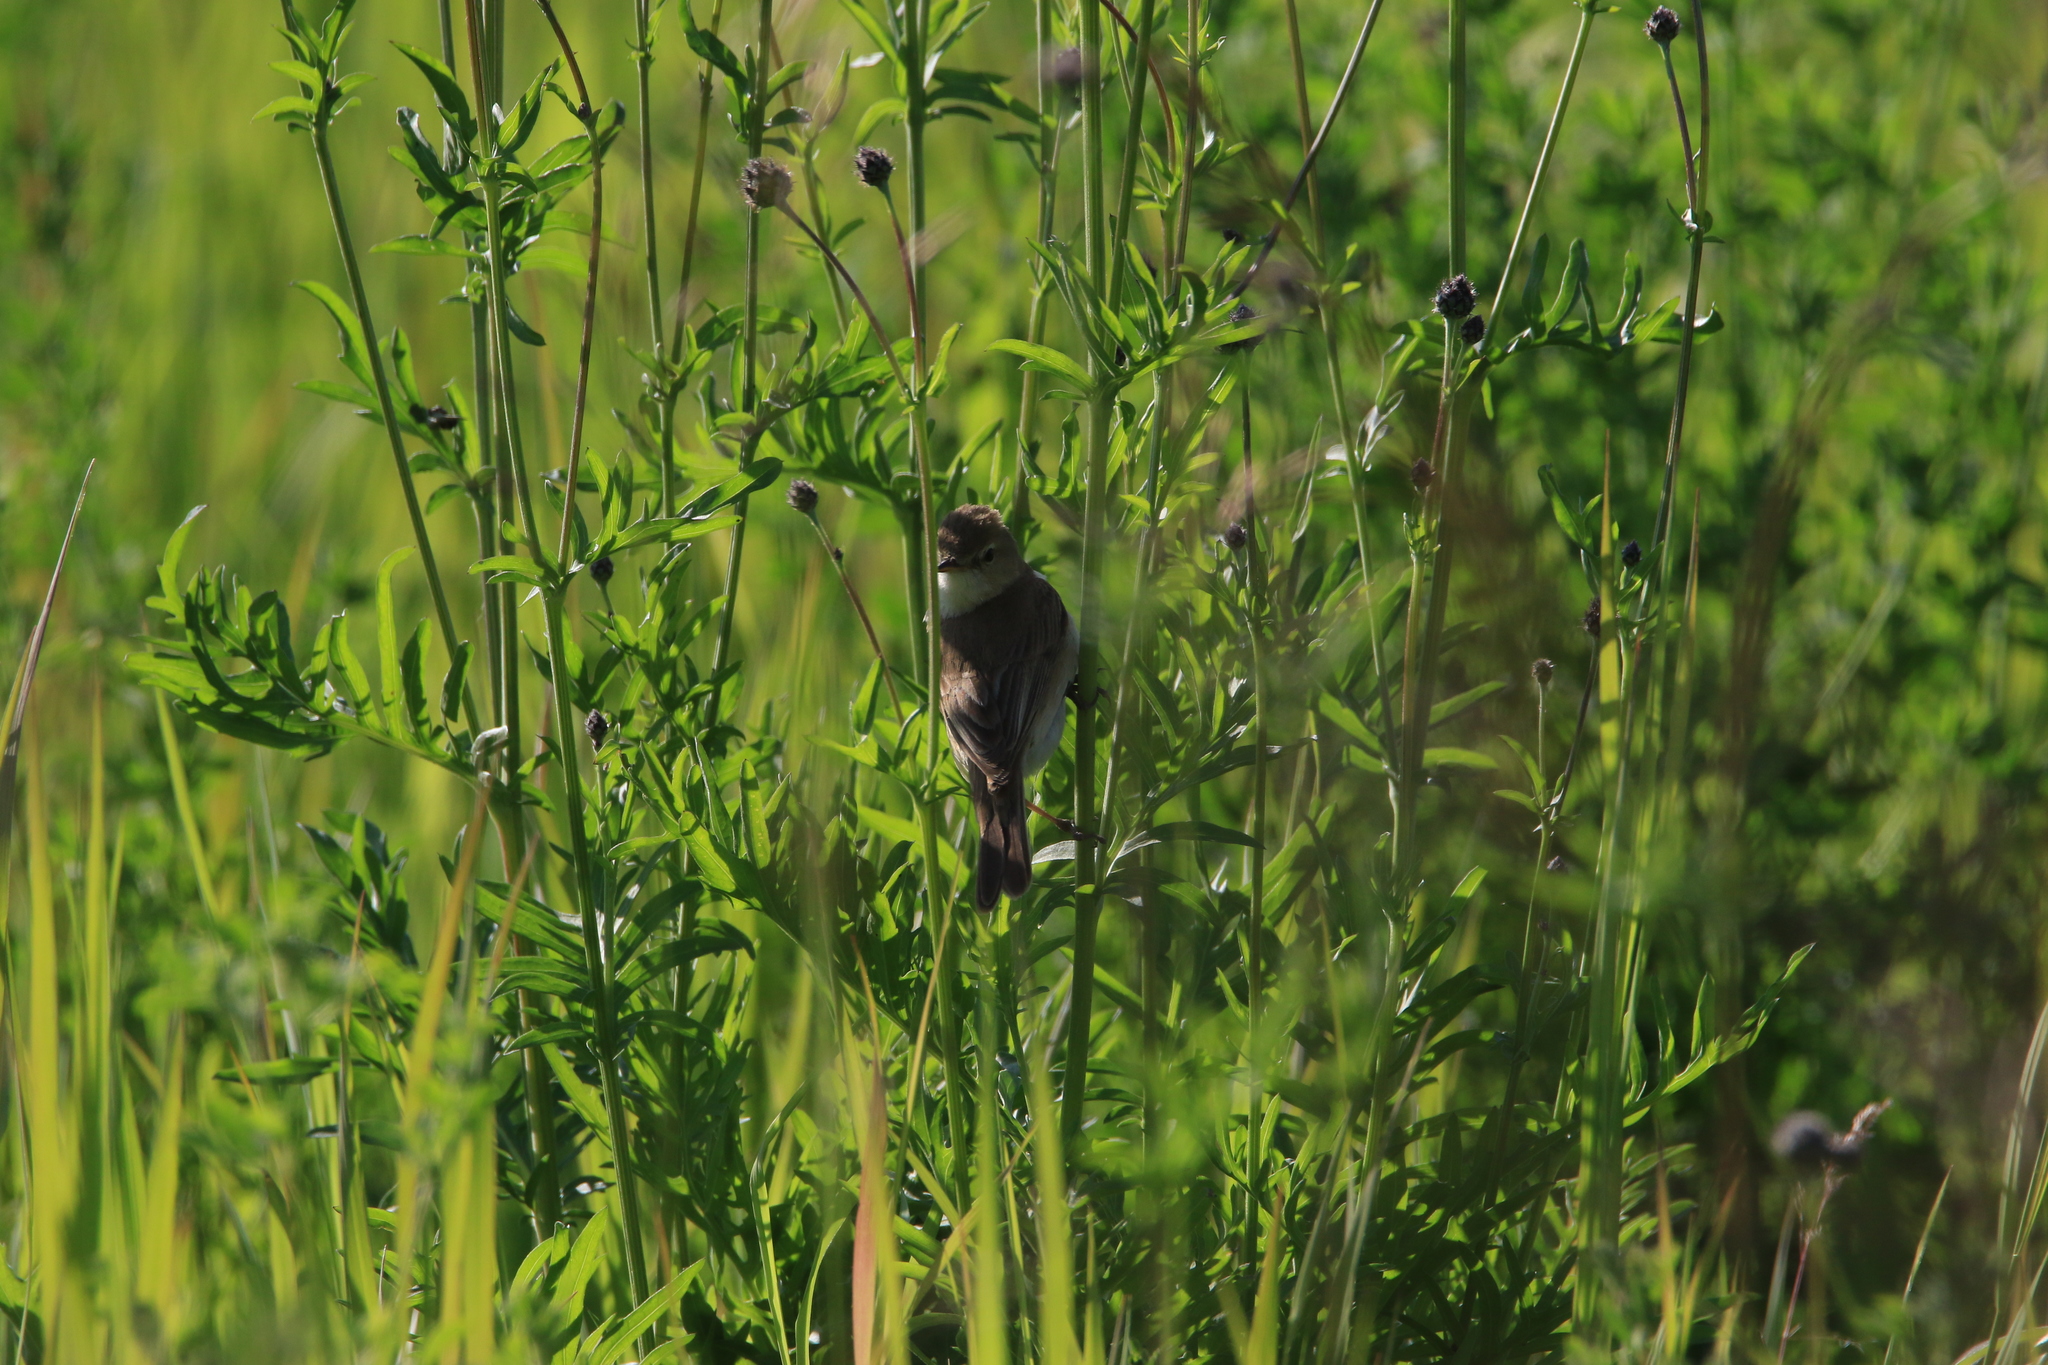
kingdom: Animalia
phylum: Chordata
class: Aves
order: Passeriformes
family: Acrocephalidae
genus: Iduna
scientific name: Iduna caligata
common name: Booted warbler
